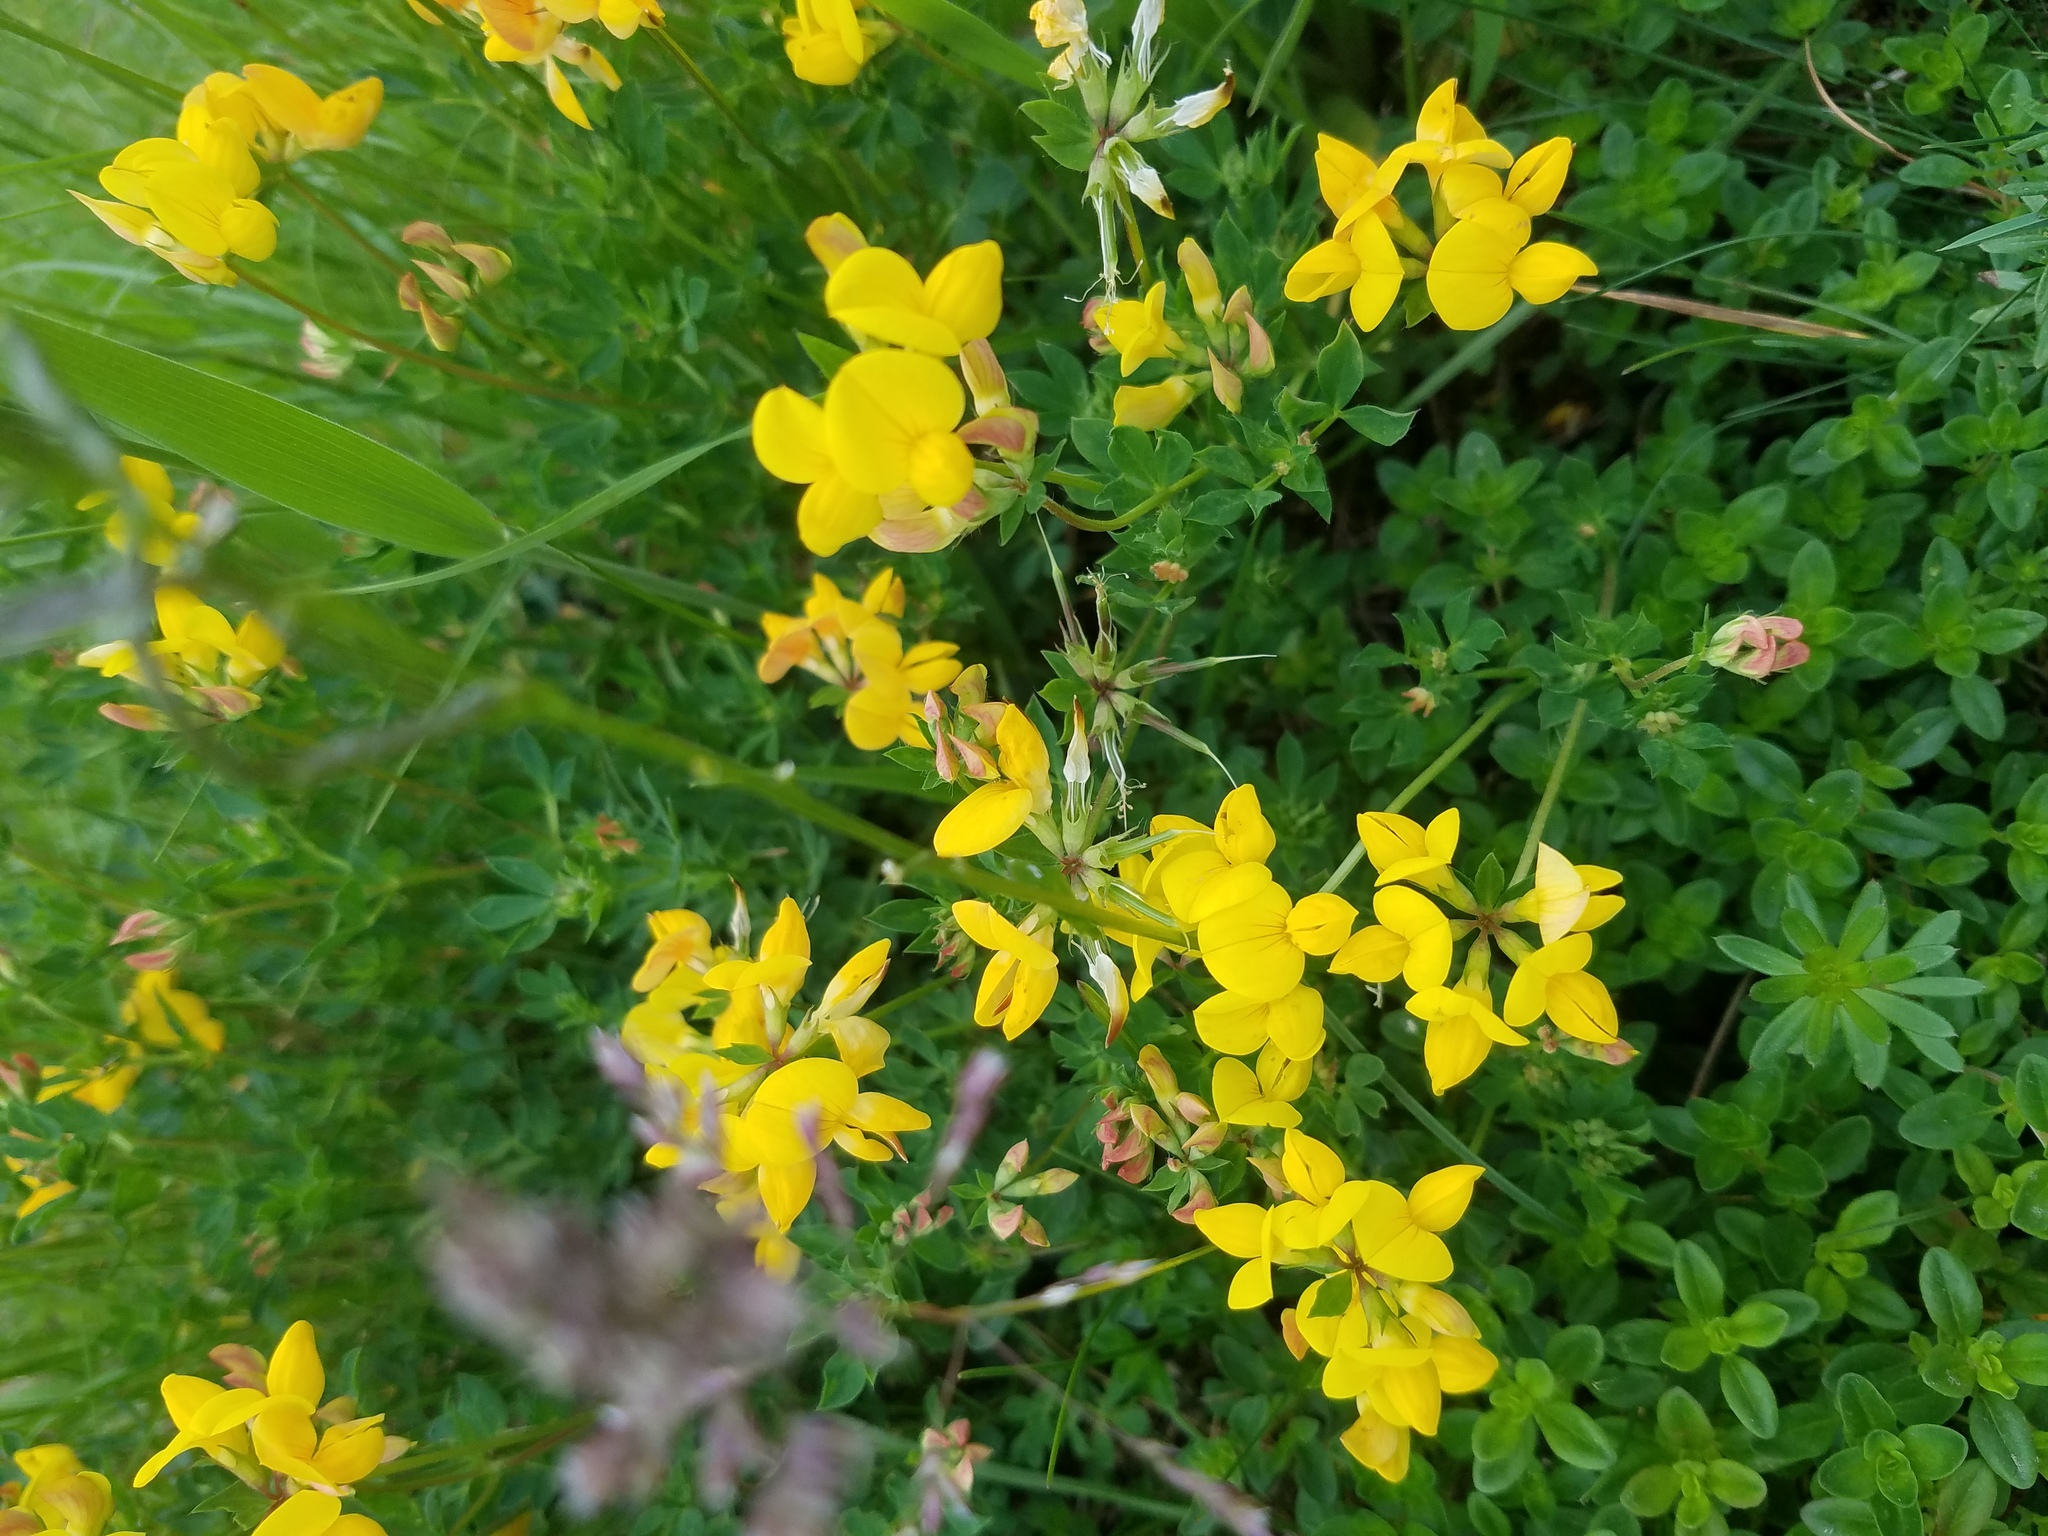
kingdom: Plantae
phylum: Tracheophyta
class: Magnoliopsida
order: Fabales
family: Fabaceae
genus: Lotus
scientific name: Lotus corniculatus
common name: Common bird's-foot-trefoil
